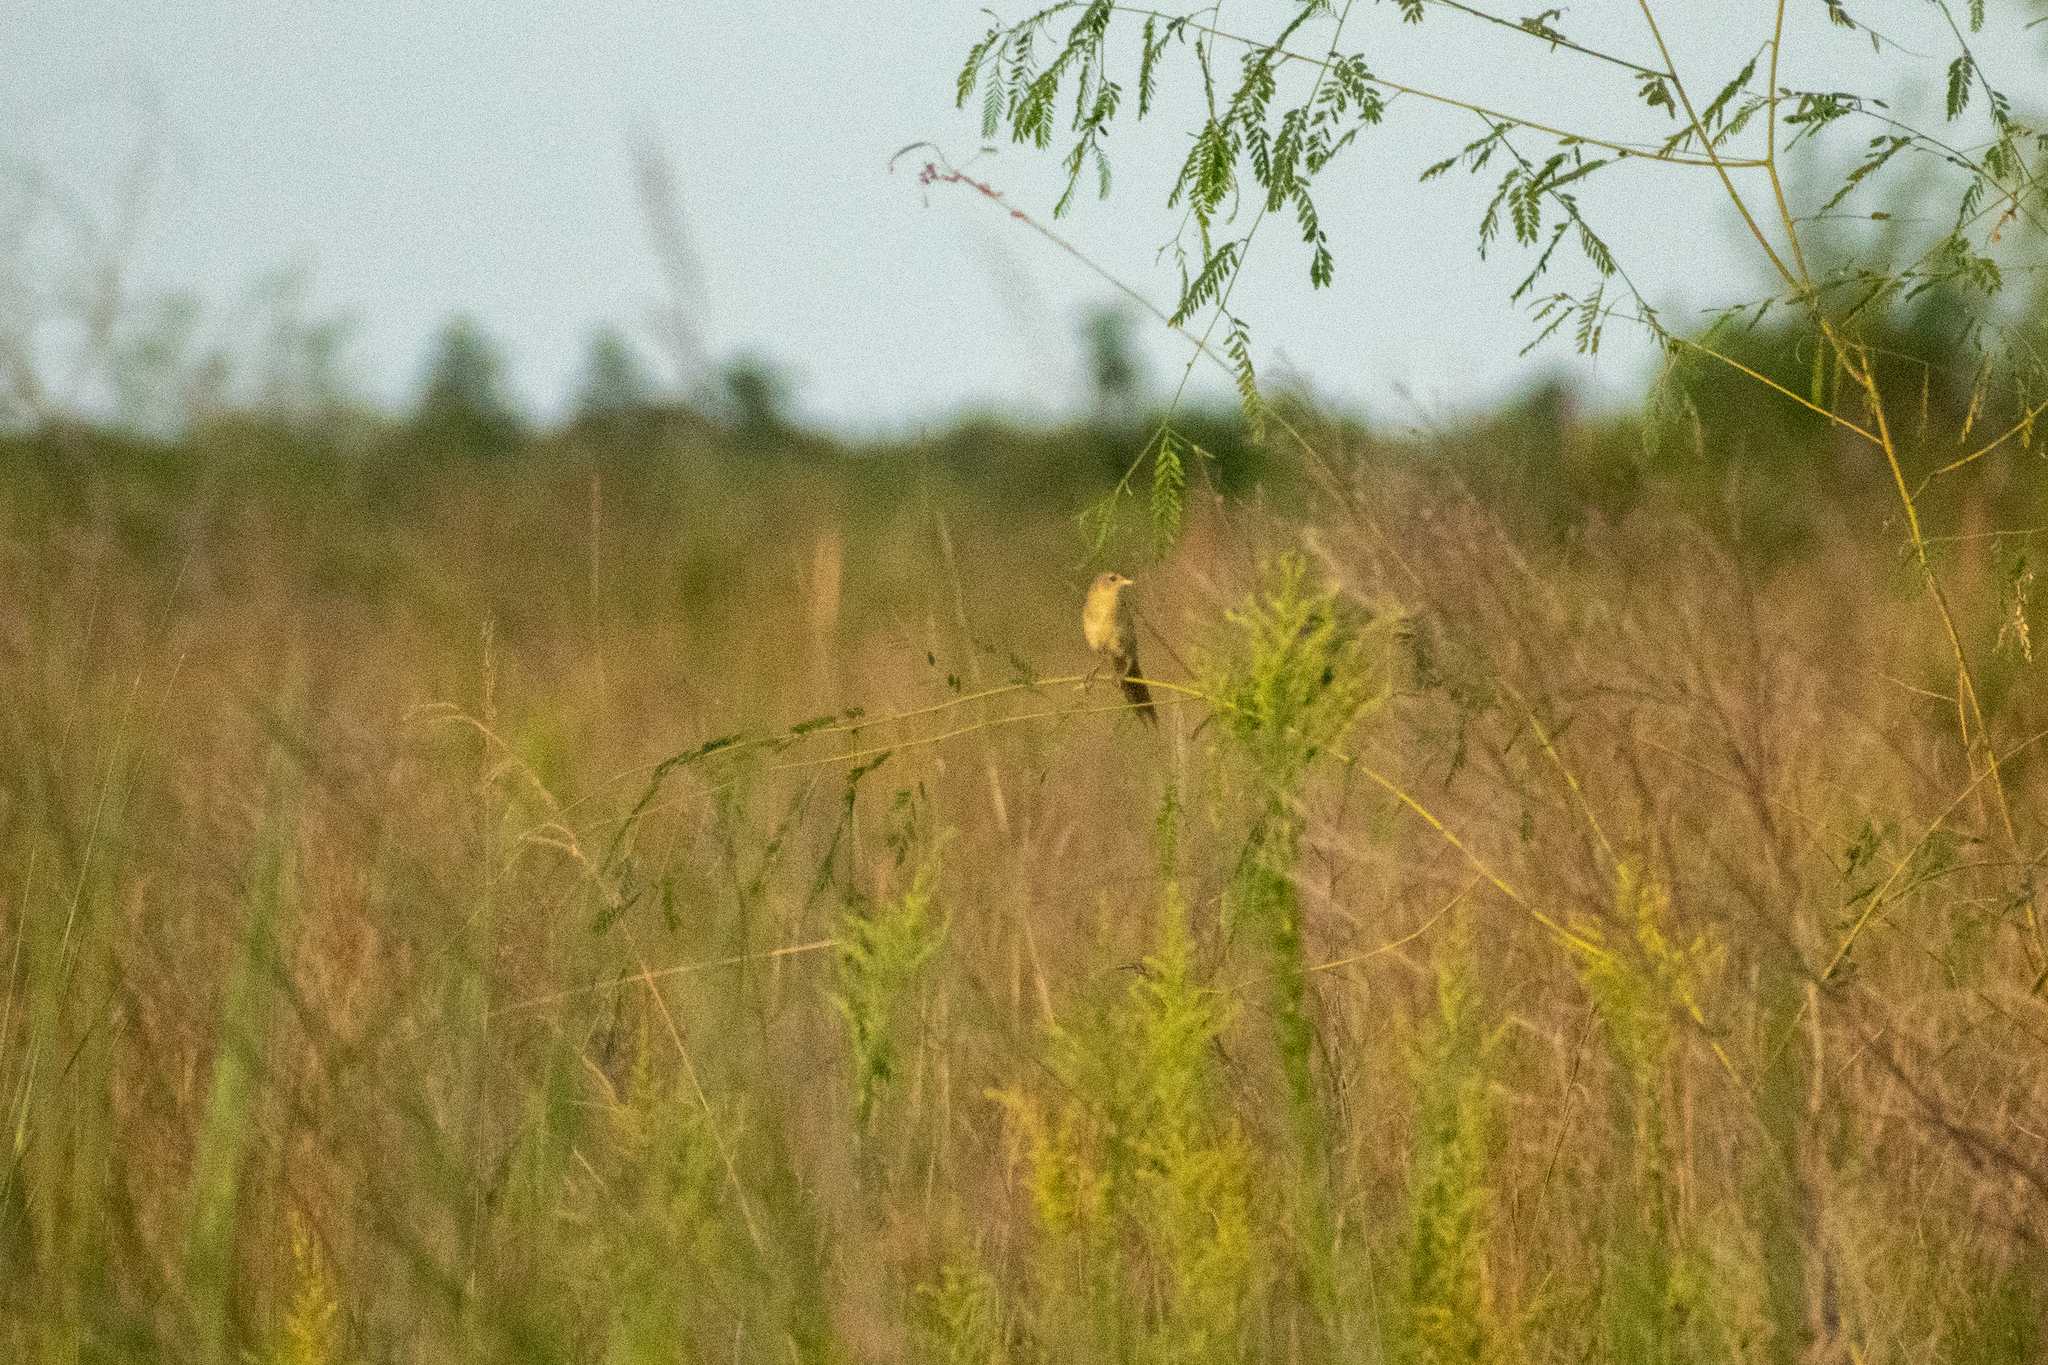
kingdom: Animalia
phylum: Chordata
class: Aves
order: Passeriformes
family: Thraupidae
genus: Emberizoides
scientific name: Emberizoides herbicola
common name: Wedge-tailed grass-finch
